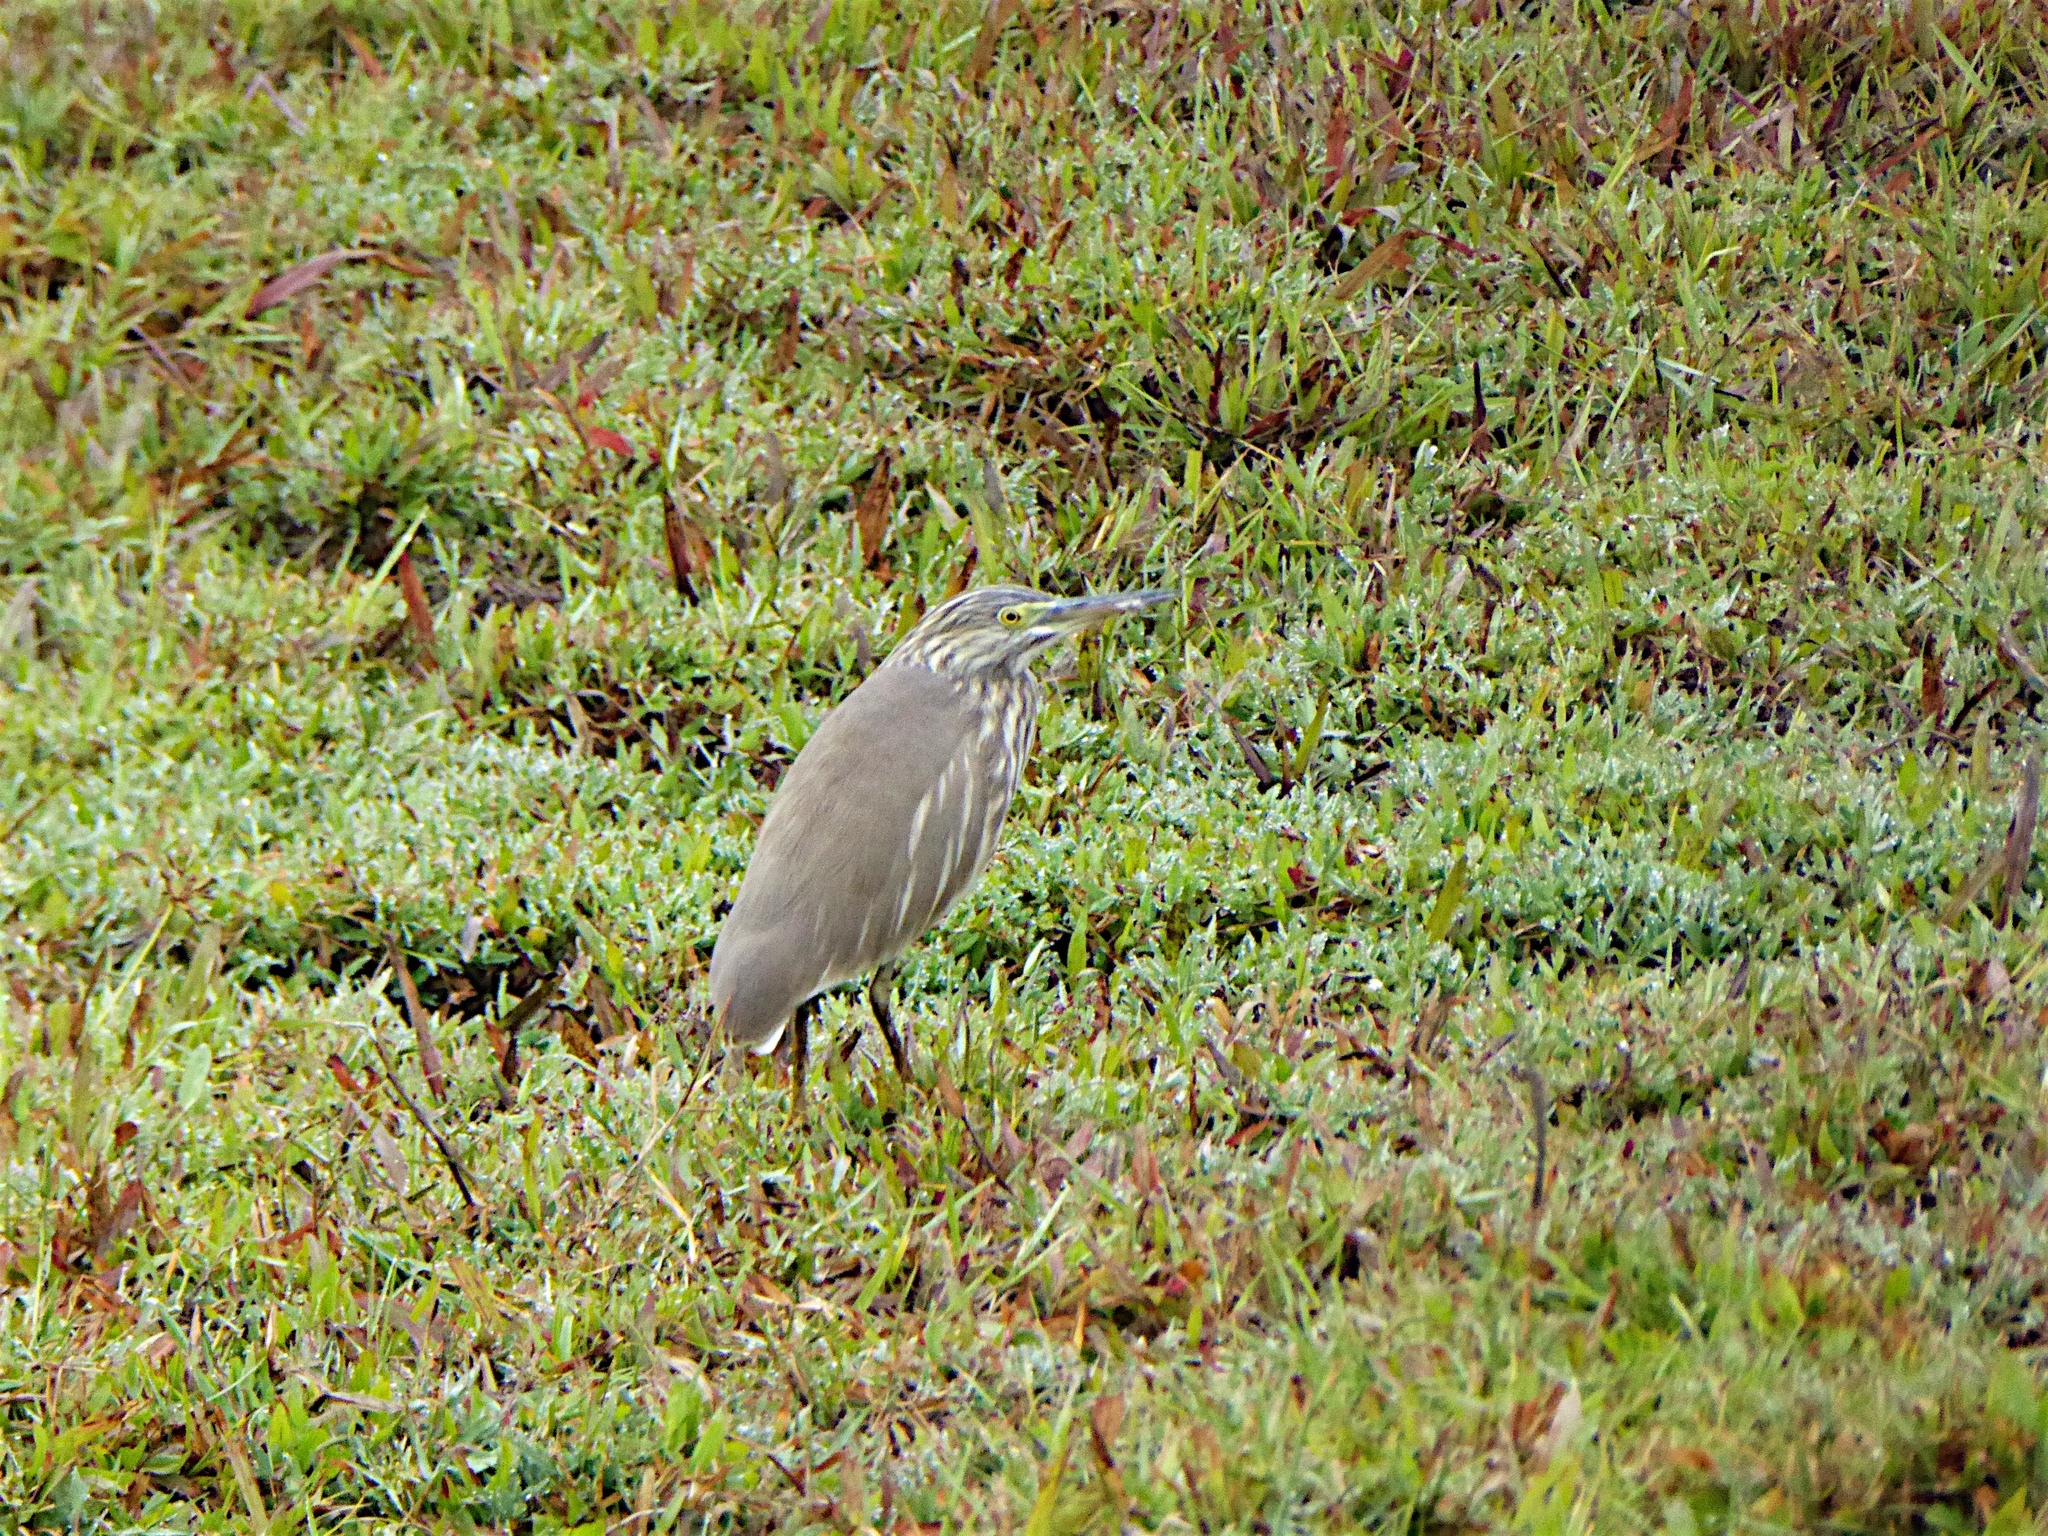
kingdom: Animalia
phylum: Chordata
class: Aves
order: Pelecaniformes
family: Ardeidae
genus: Ardeola
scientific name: Ardeola grayii
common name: Indian pond heron
